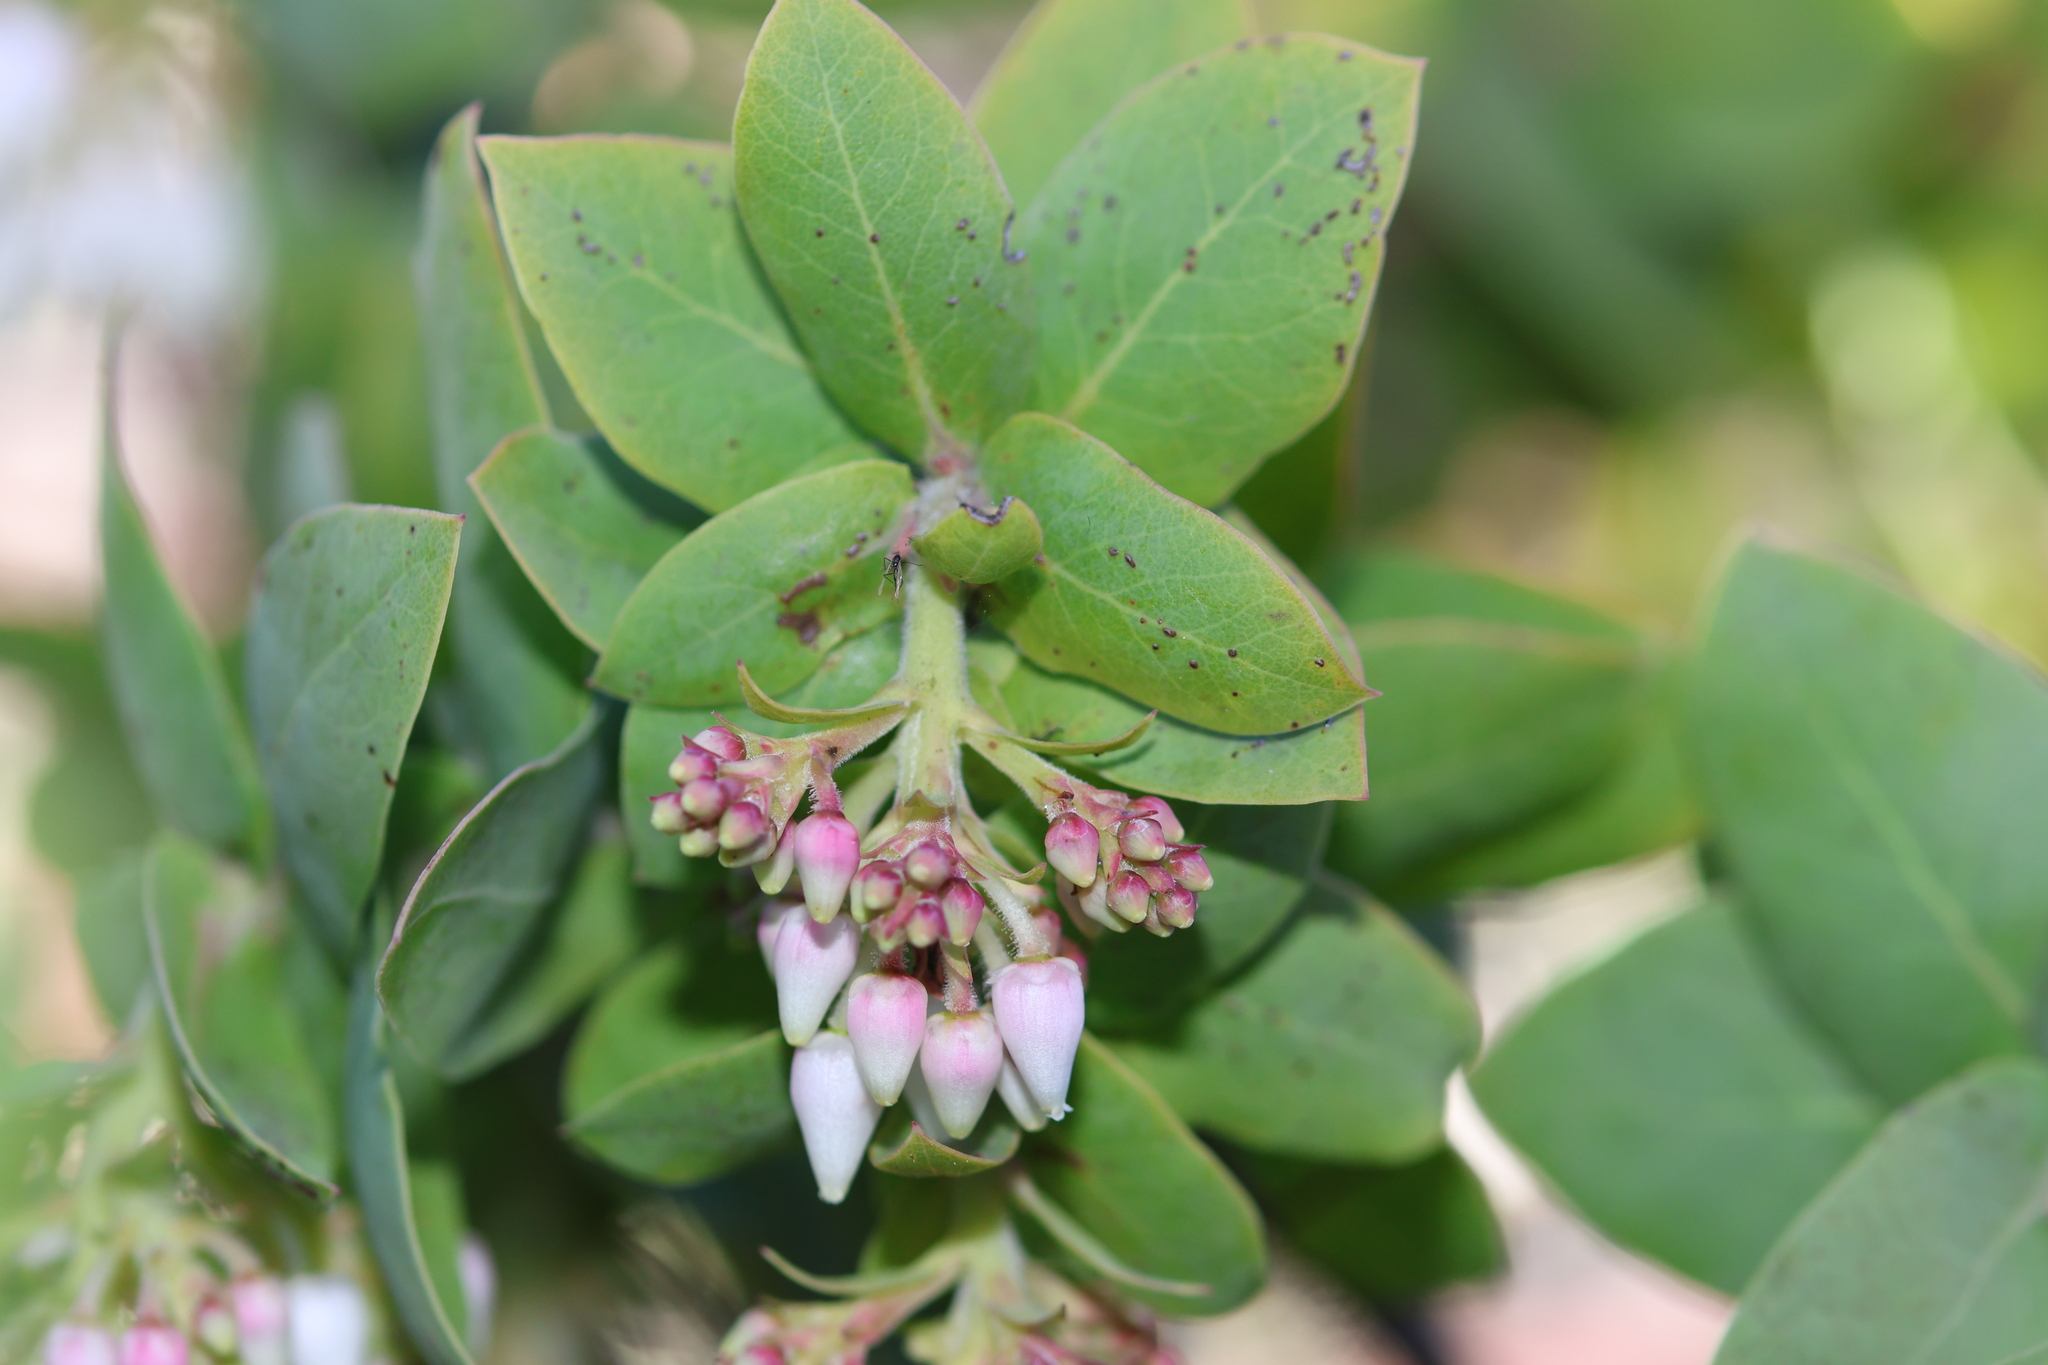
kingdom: Plantae
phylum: Tracheophyta
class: Magnoliopsida
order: Ericales
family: Ericaceae
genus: Arctostaphylos
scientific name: Arctostaphylos pallida
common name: Pallid manzanita
